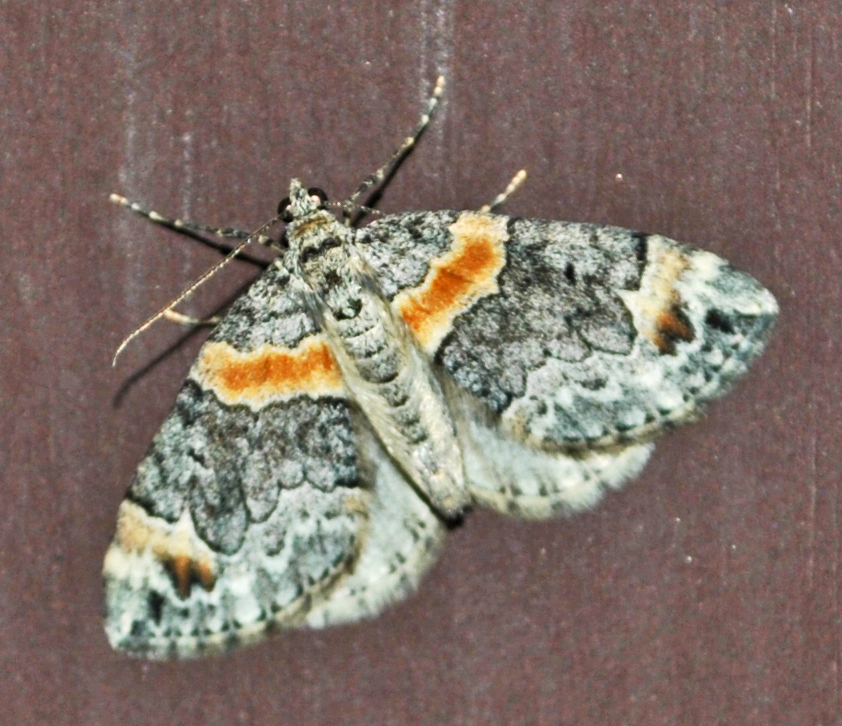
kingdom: Animalia
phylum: Arthropoda
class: Insecta
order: Lepidoptera
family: Geometridae
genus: Dysstroma
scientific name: Dysstroma hersiliata
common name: Orange-barred carpet
